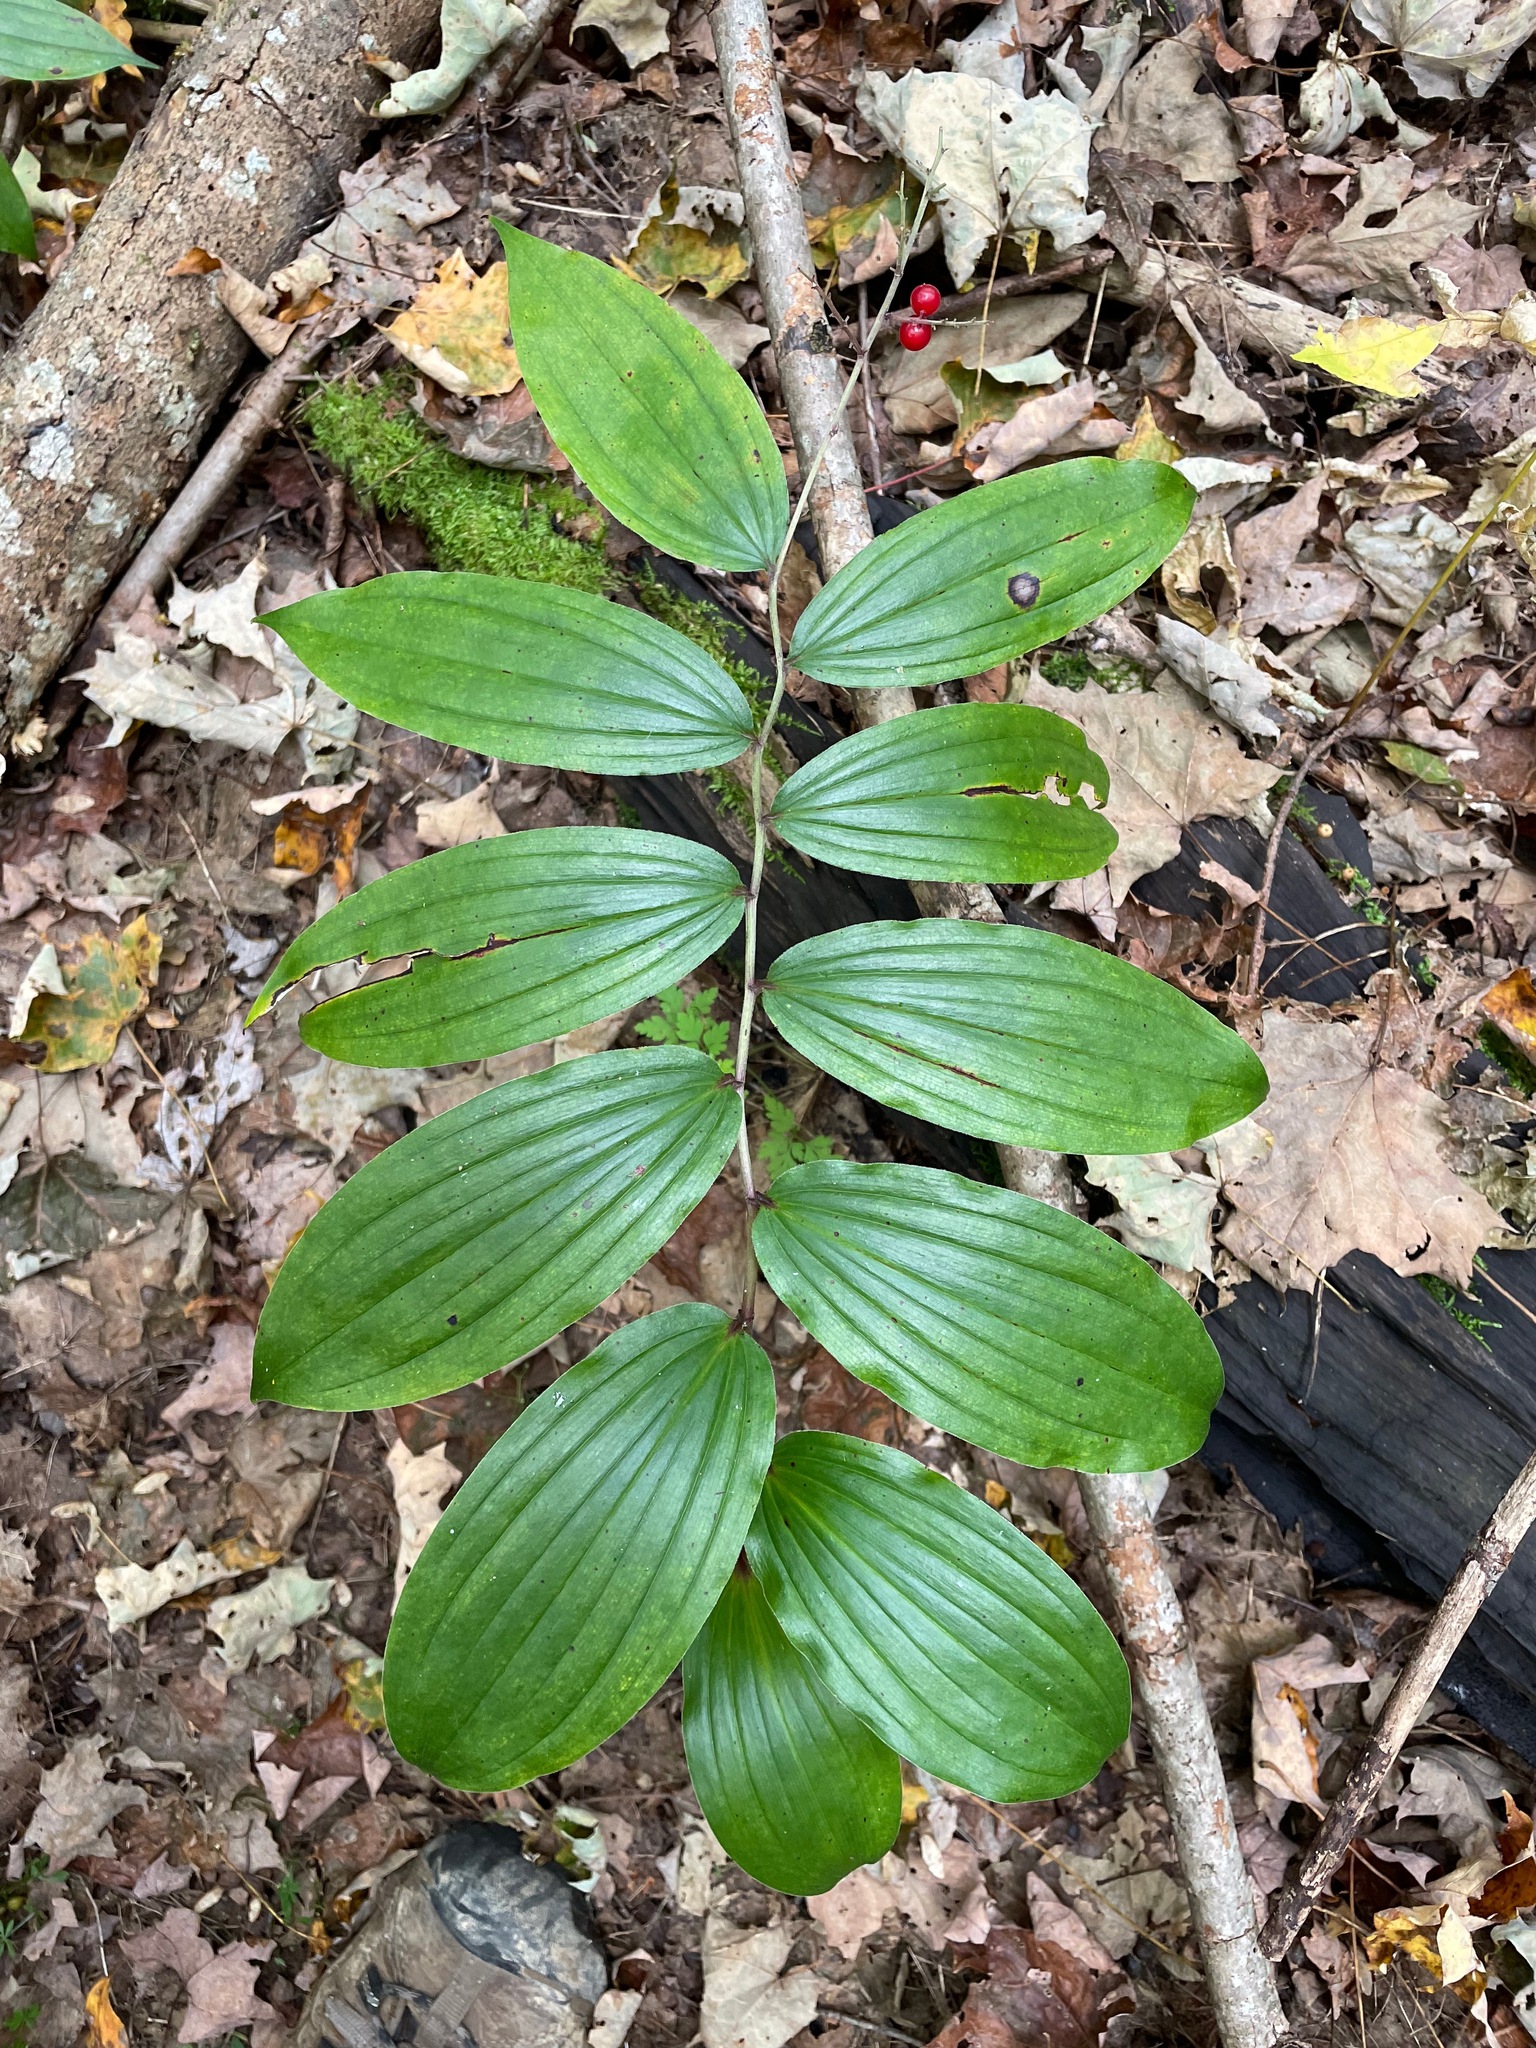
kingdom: Plantae
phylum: Tracheophyta
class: Liliopsida
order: Asparagales
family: Asparagaceae
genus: Maianthemum
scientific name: Maianthemum racemosum
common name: False spikenard
